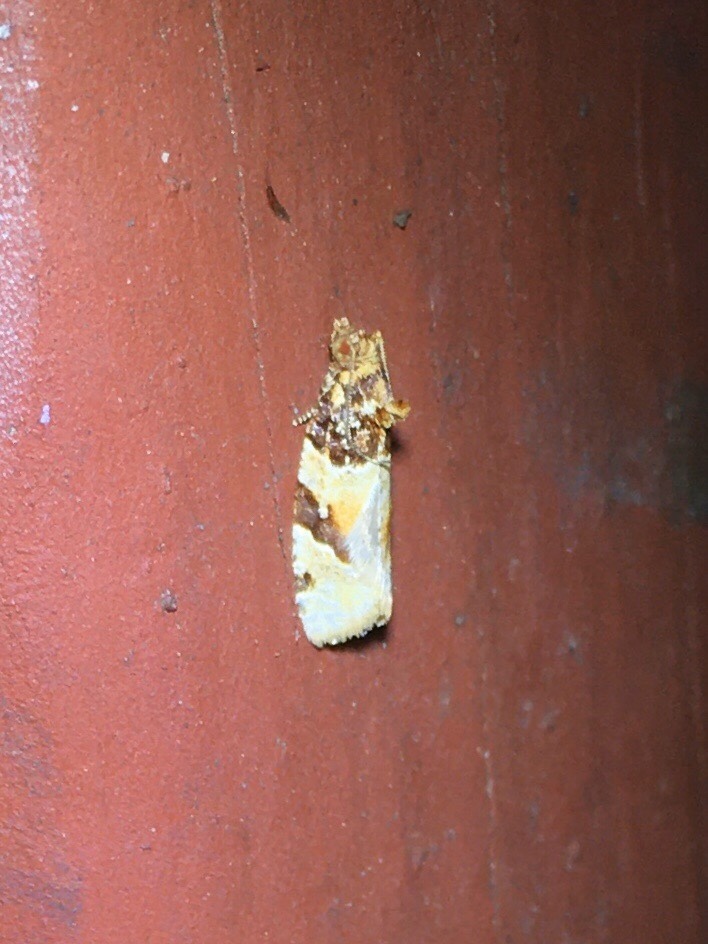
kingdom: Animalia
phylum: Arthropoda
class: Insecta
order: Lepidoptera
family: Tortricidae
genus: Argyrotaenia
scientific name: Argyrotaenia kimballi
